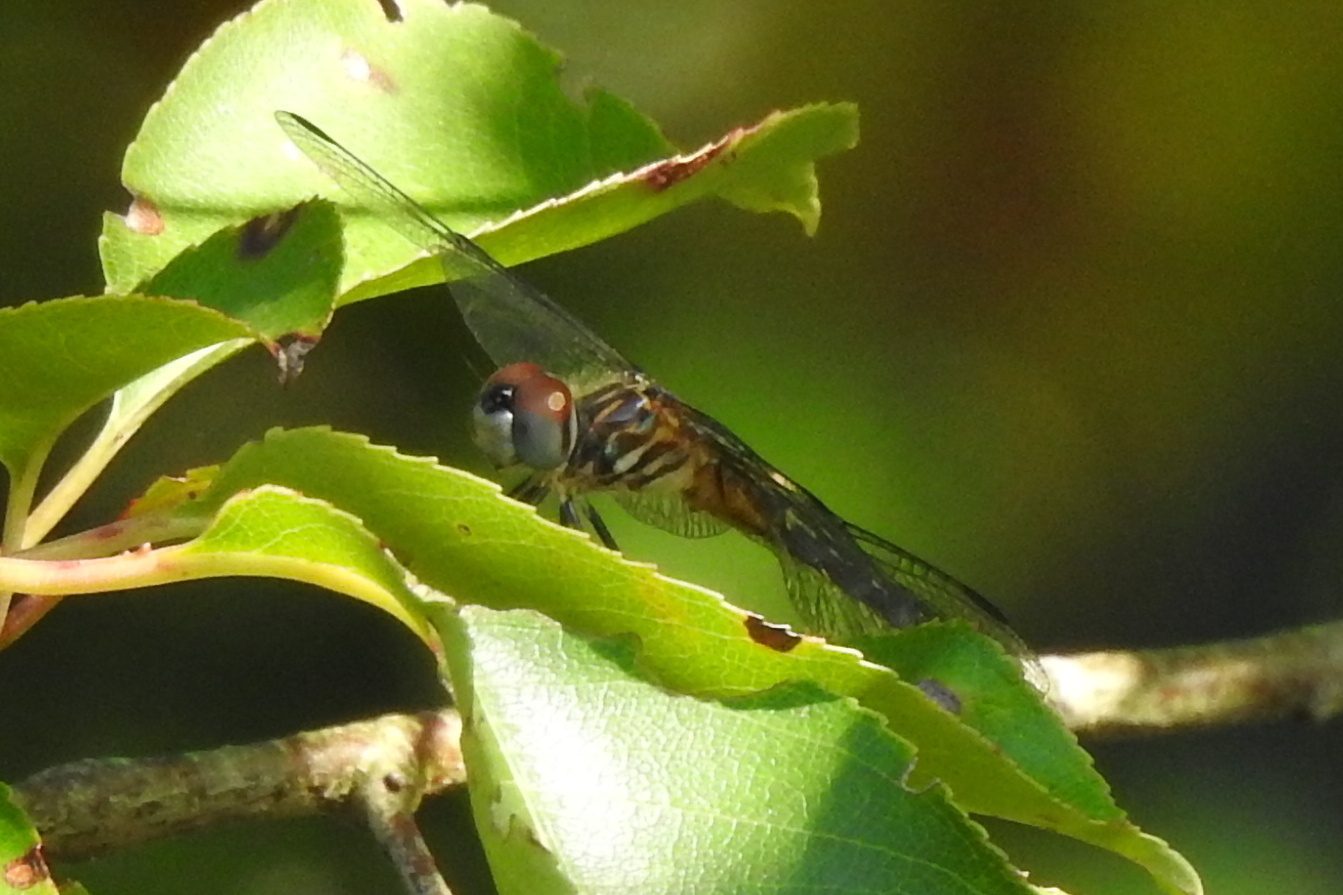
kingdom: Animalia
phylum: Arthropoda
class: Insecta
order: Odonata
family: Libellulidae
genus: Pachydiplax
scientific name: Pachydiplax longipennis
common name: Blue dasher
